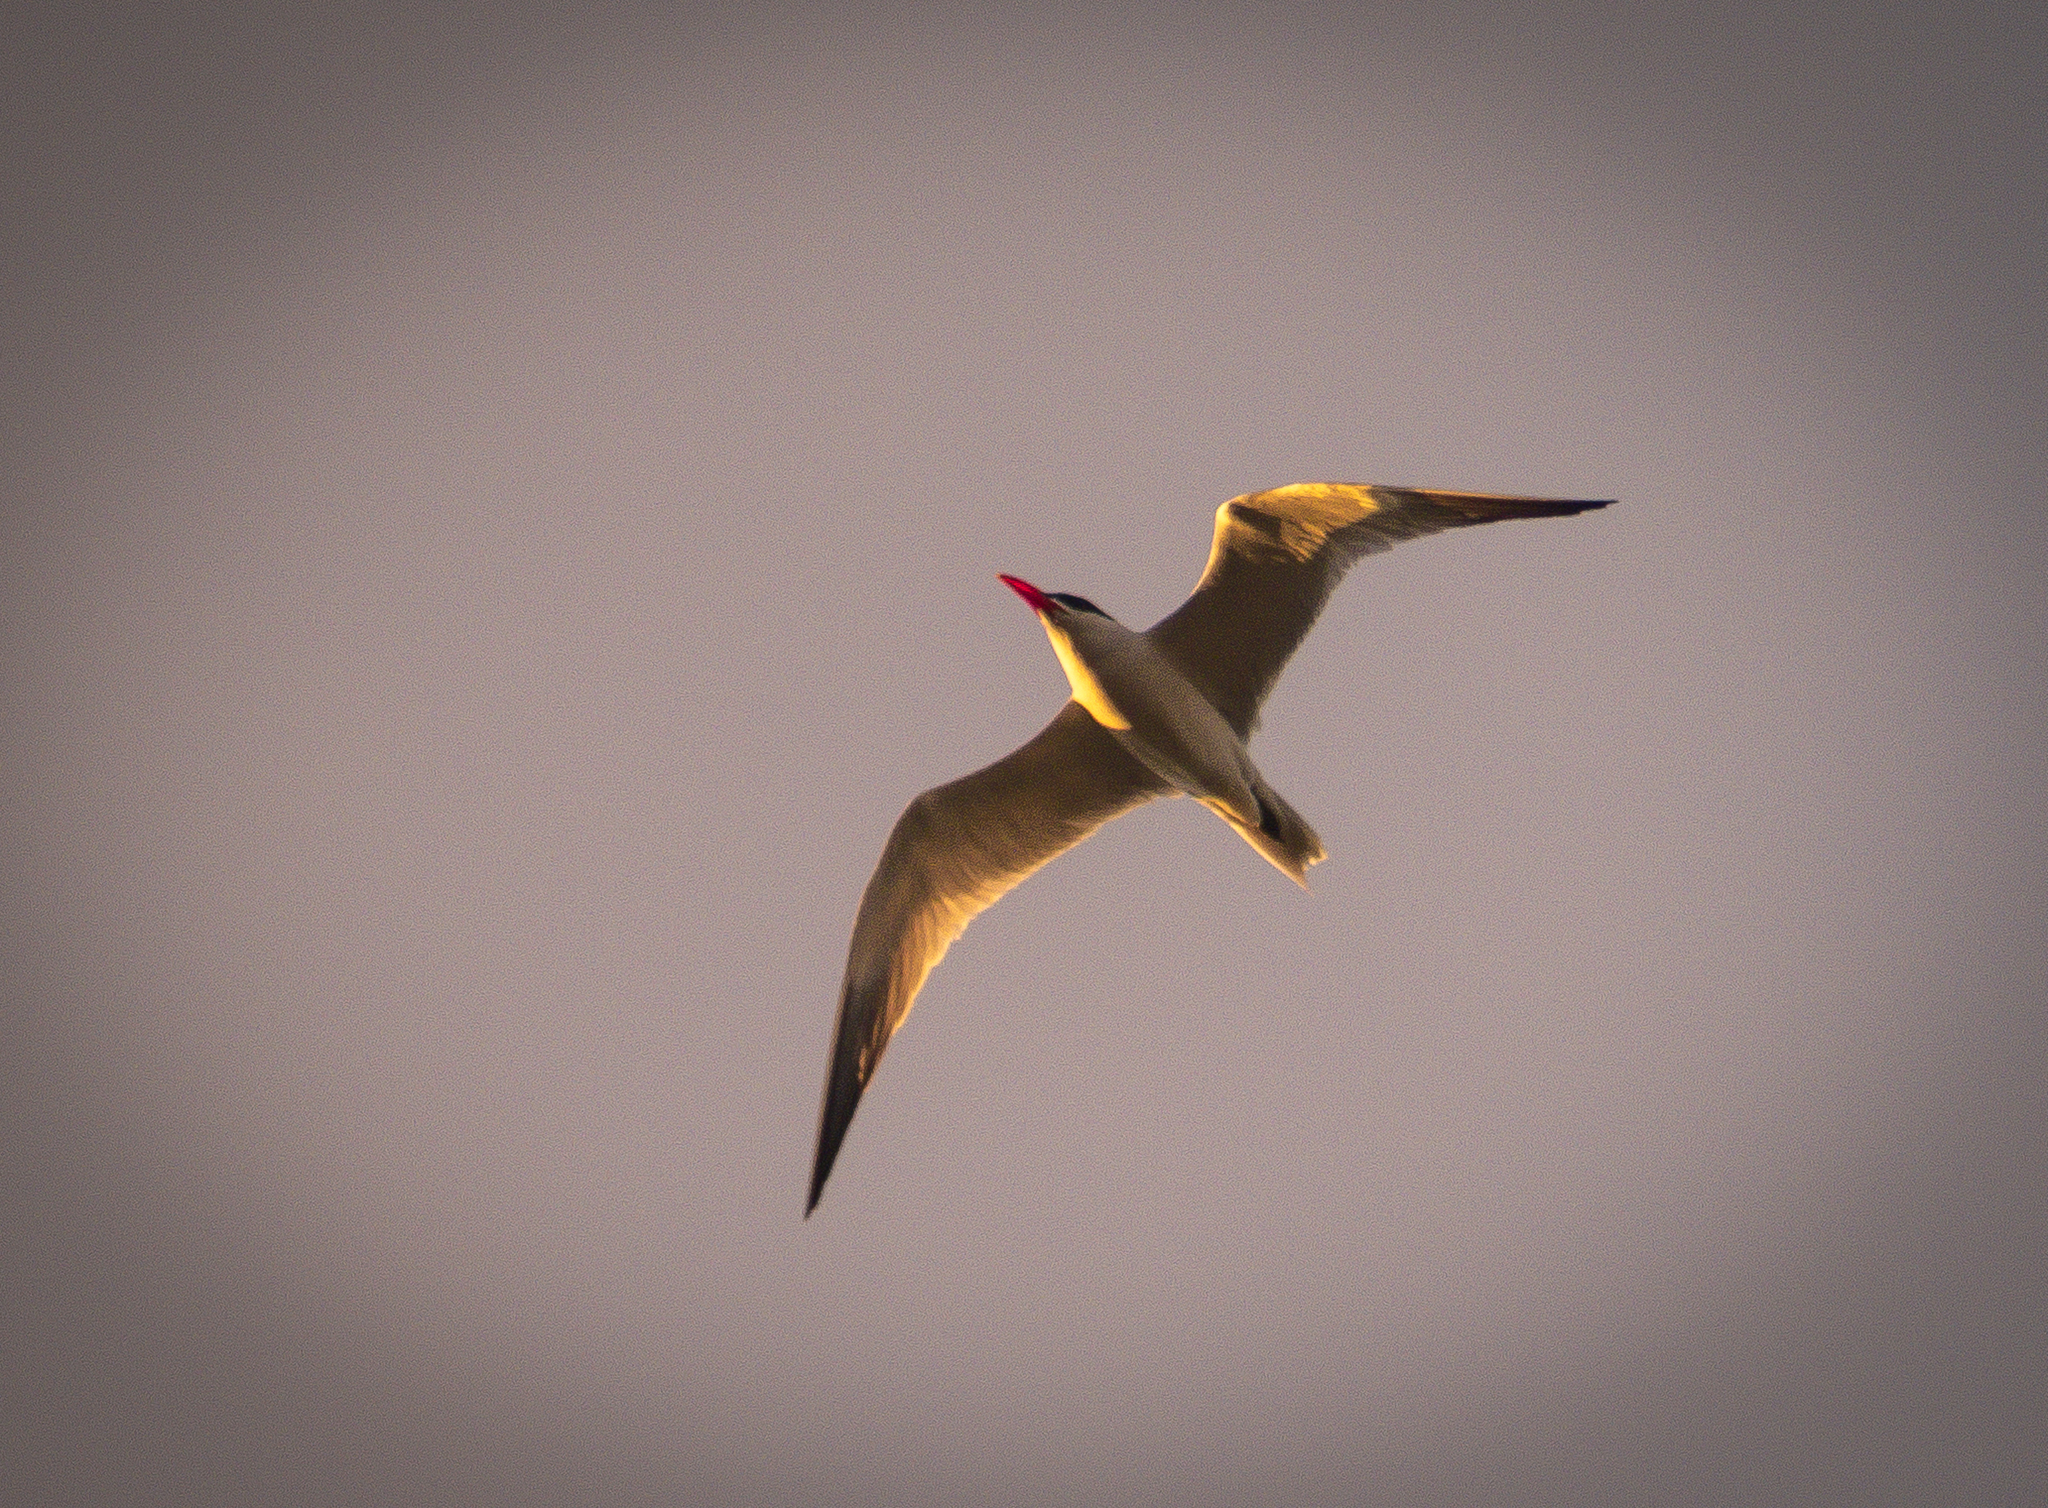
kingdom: Animalia
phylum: Chordata
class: Aves
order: Charadriiformes
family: Laridae
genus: Hydroprogne
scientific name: Hydroprogne caspia
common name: Caspian tern
